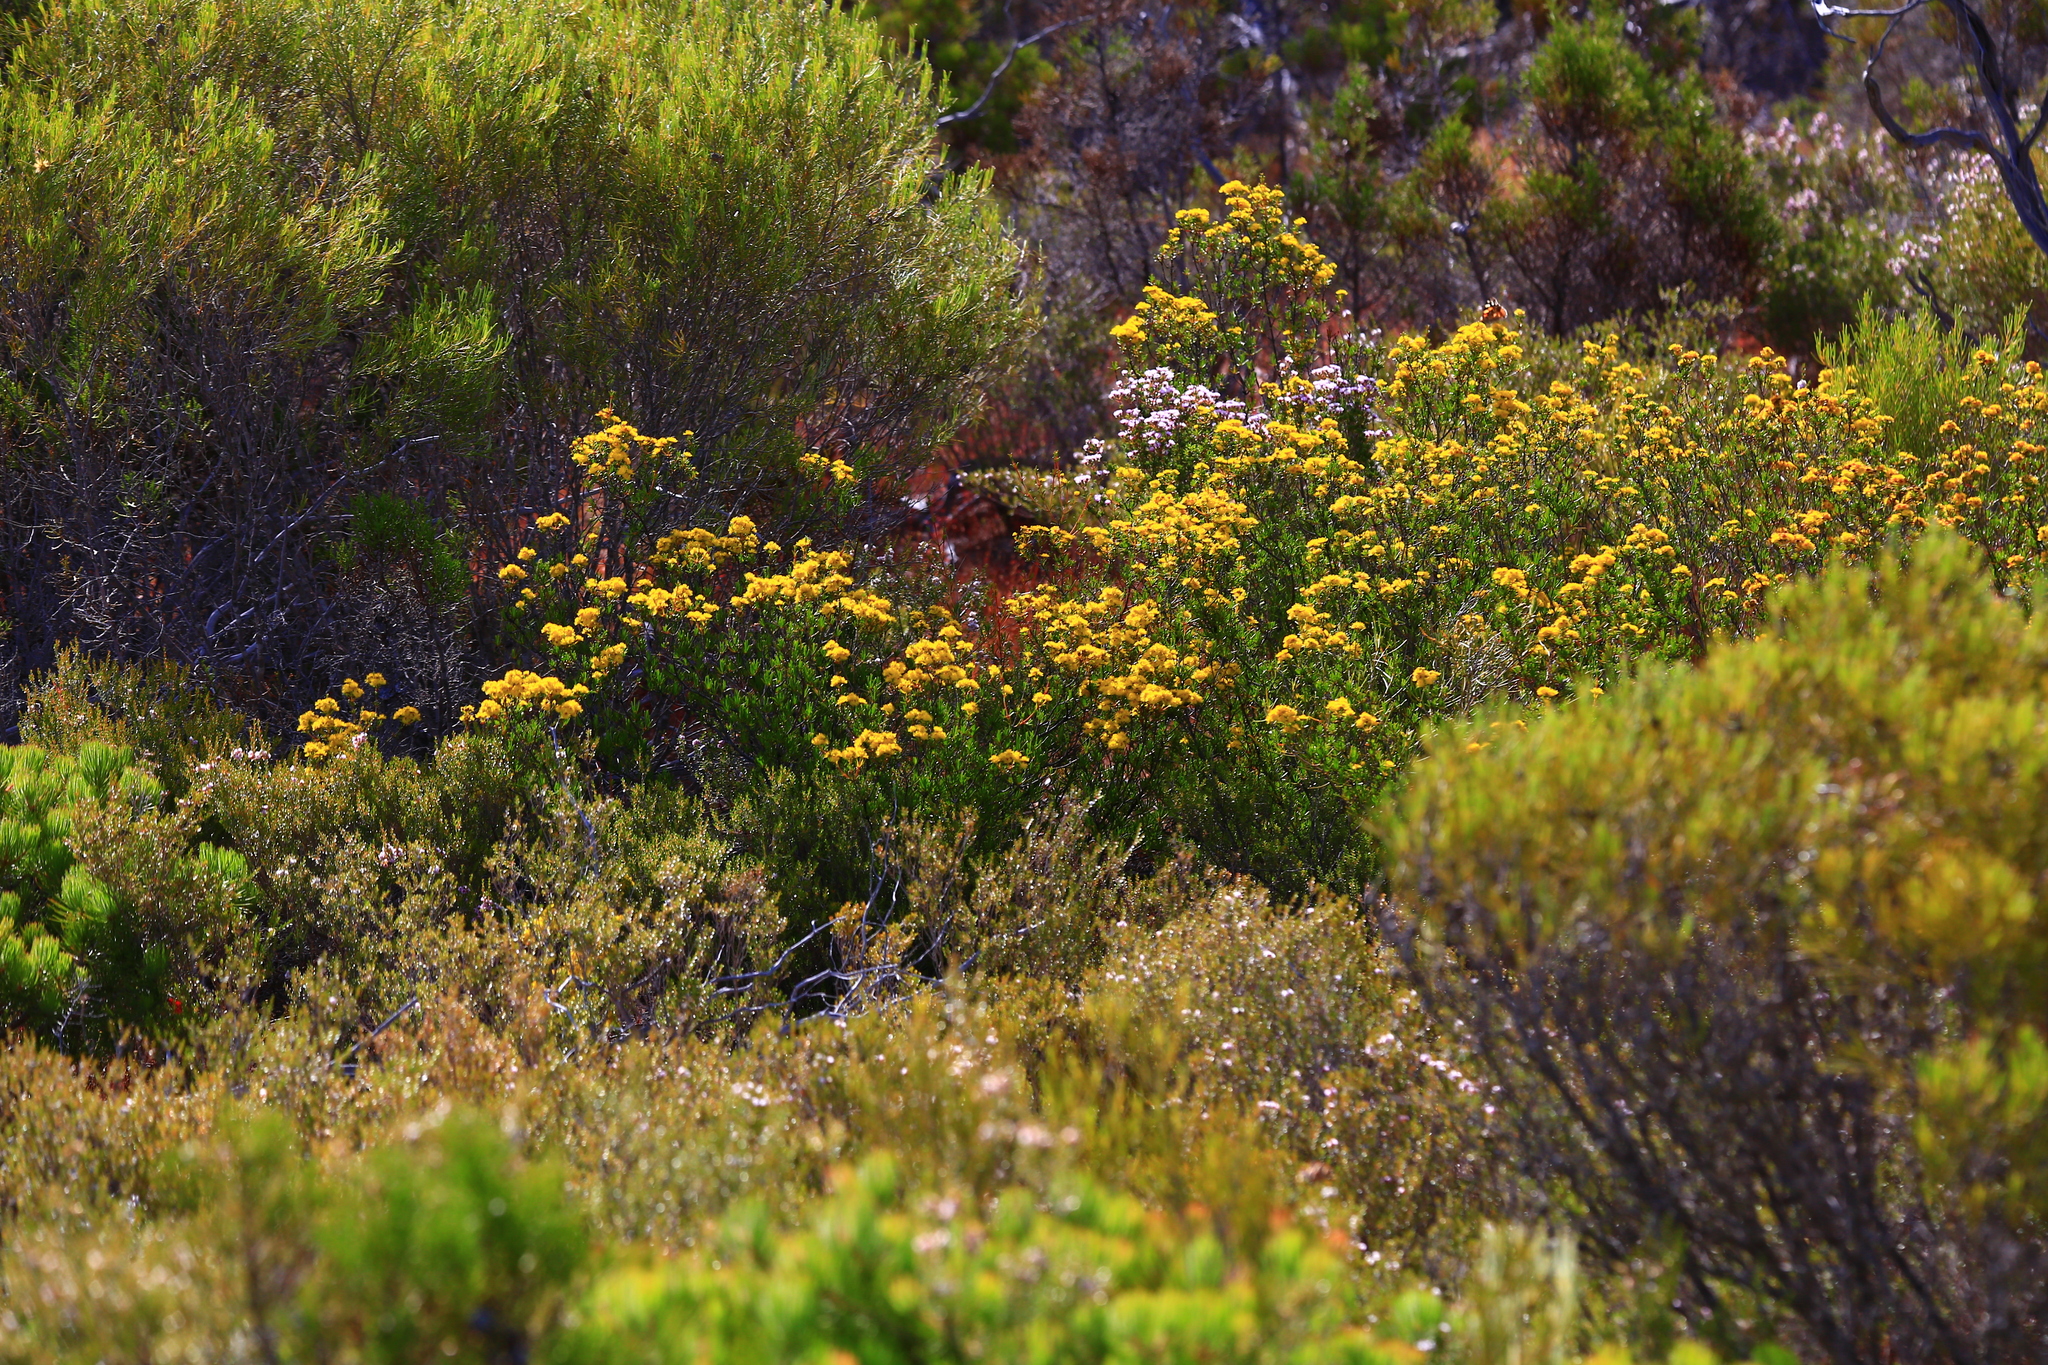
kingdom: Plantae
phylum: Tracheophyta
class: Magnoliopsida
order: Myrtales
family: Myrtaceae
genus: Verticordia
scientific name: Verticordia acerosa
